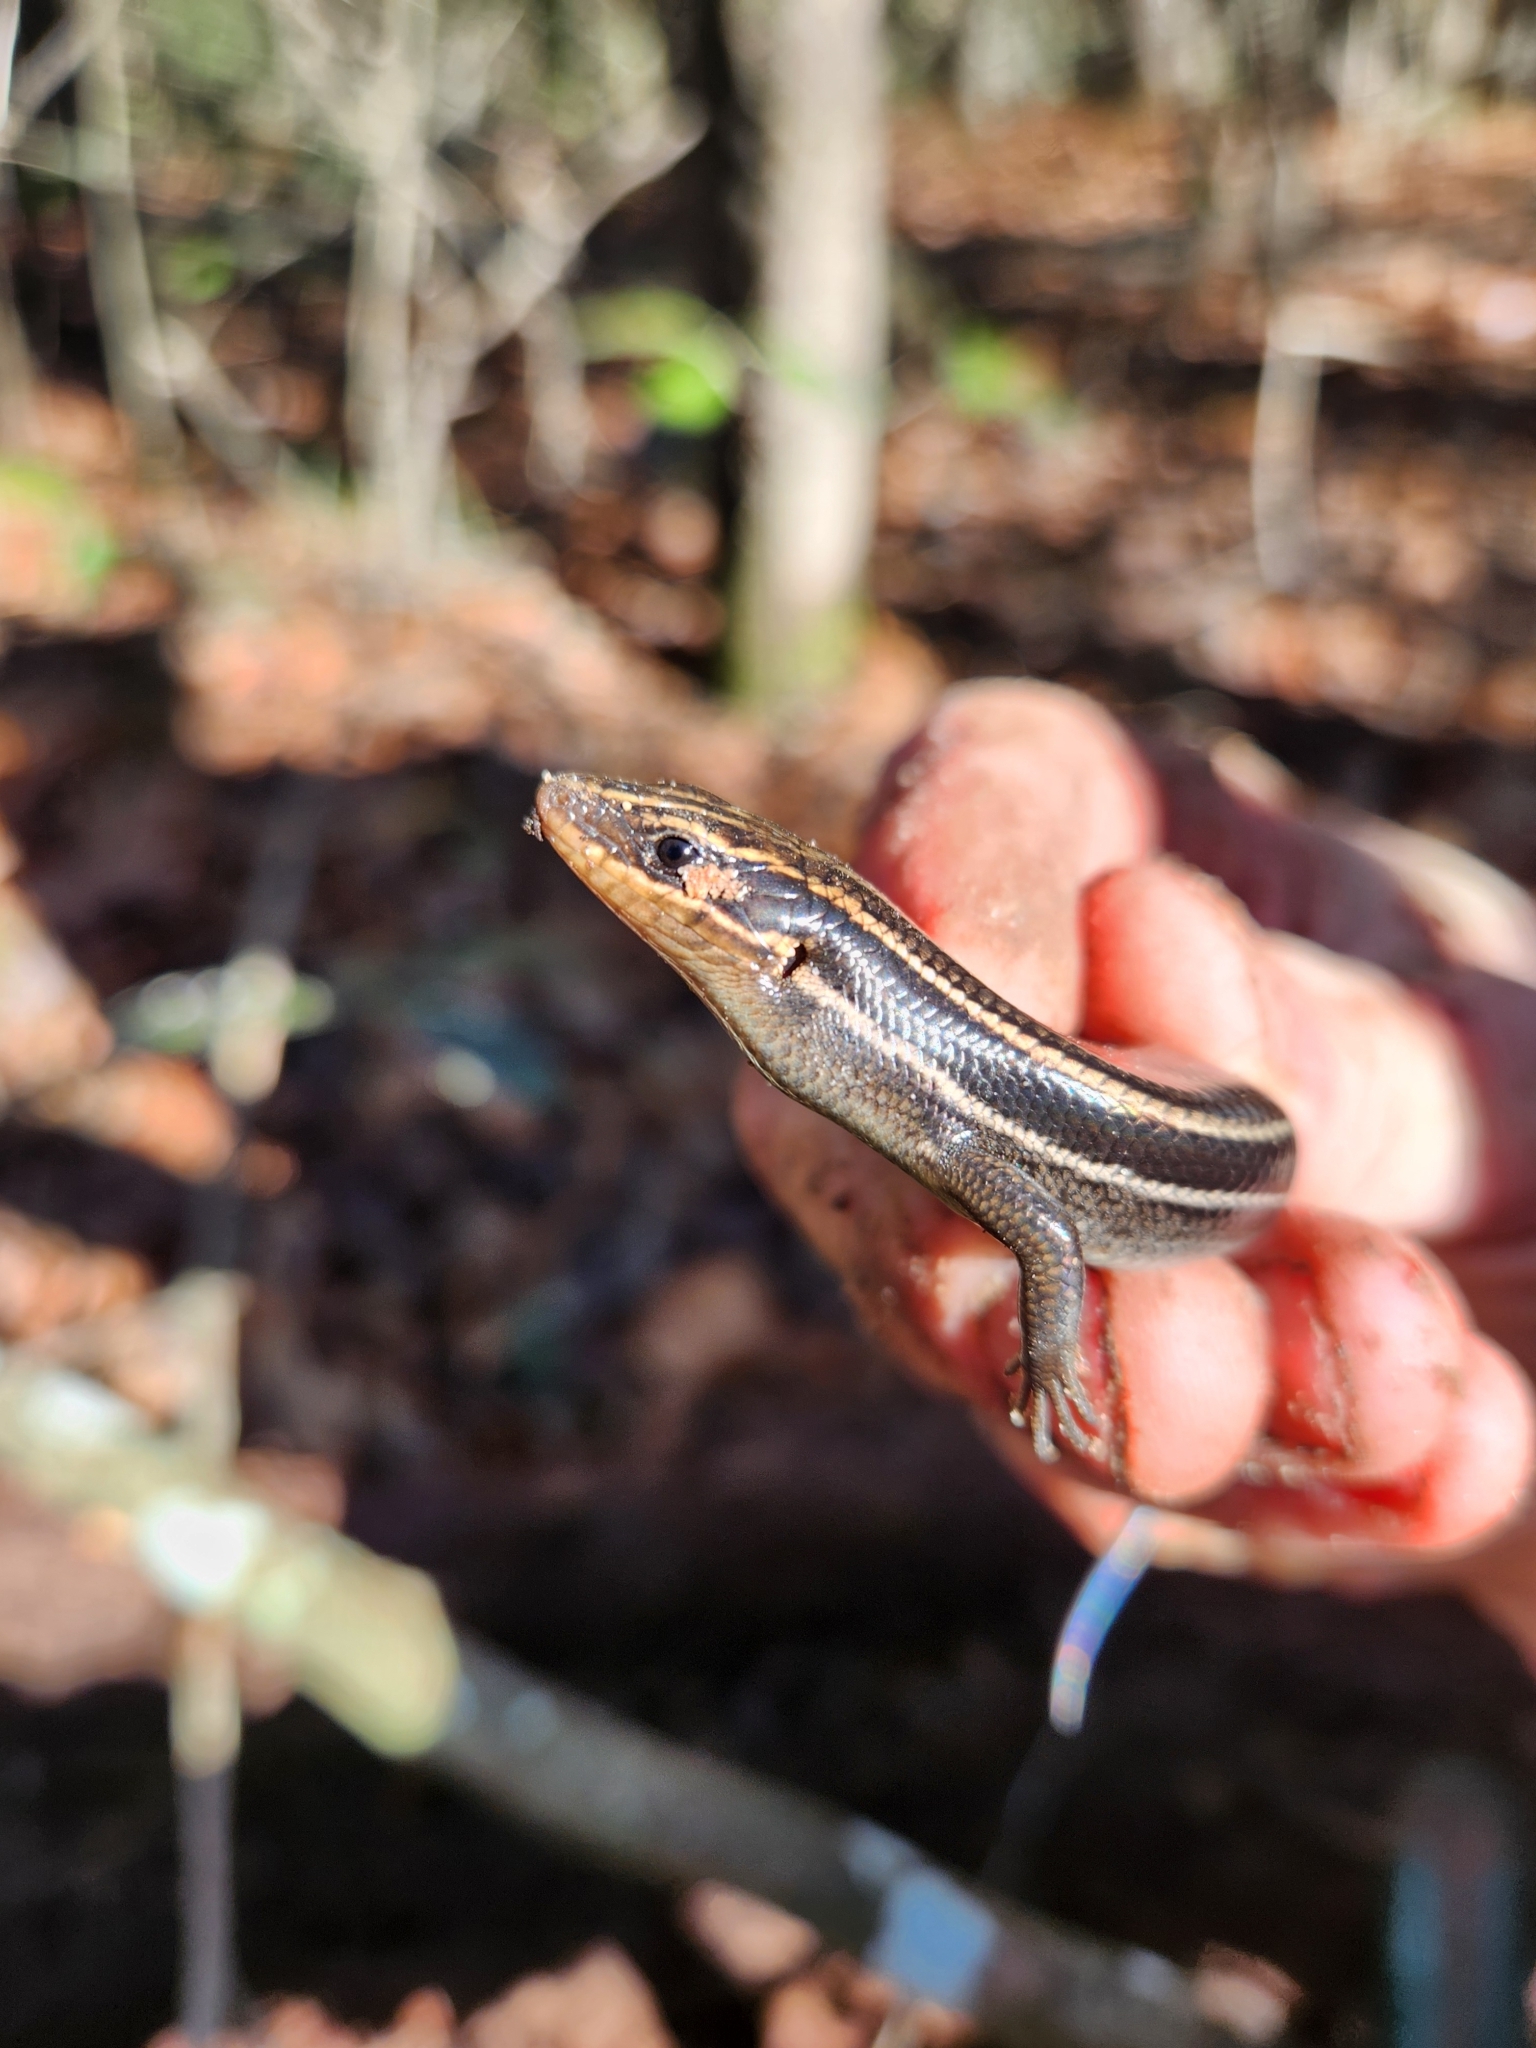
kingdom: Animalia
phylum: Chordata
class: Squamata
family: Scincidae
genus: Plestiodon
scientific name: Plestiodon fasciatus
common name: Five-lined skink
